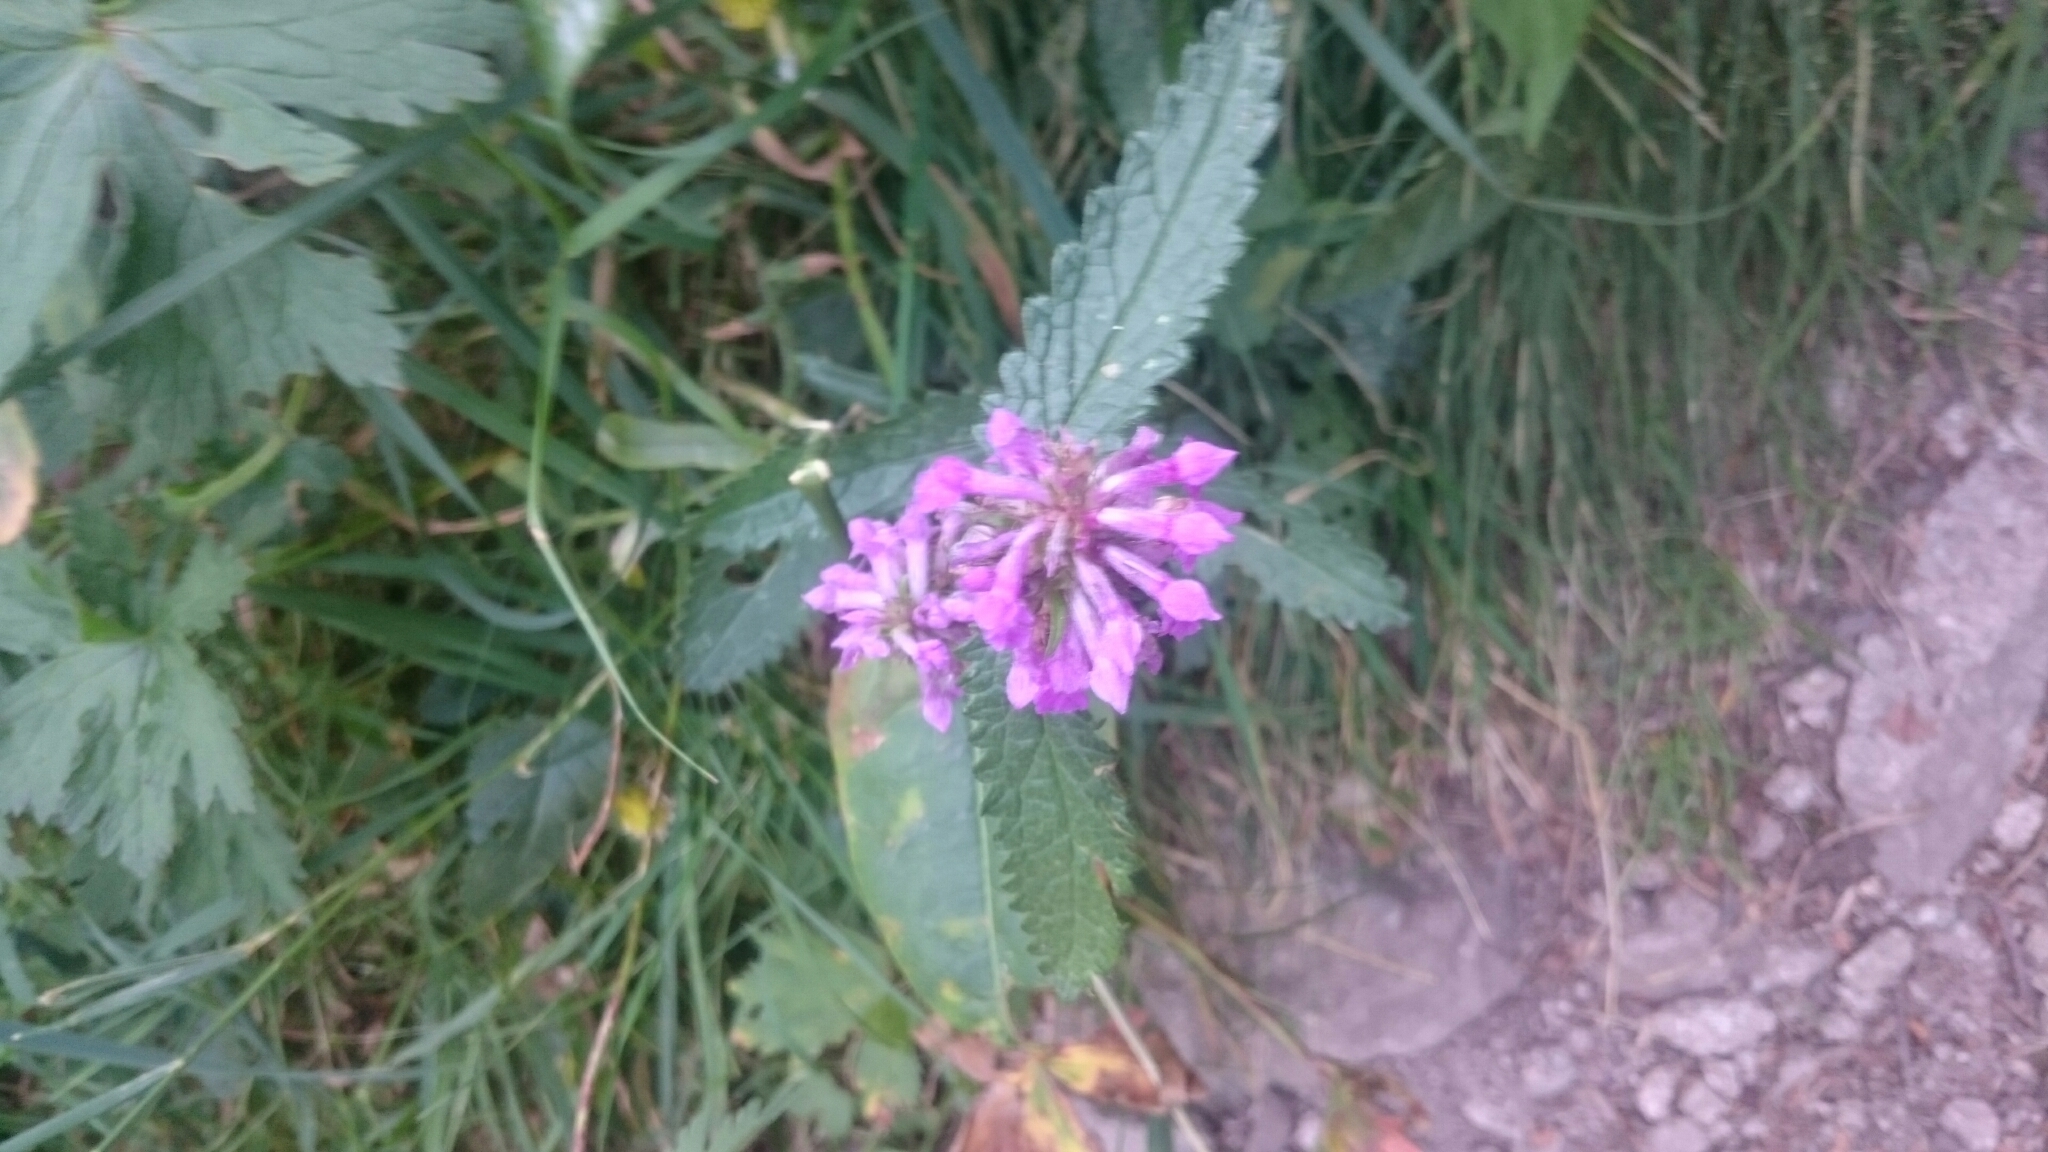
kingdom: Plantae
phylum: Tracheophyta
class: Magnoliopsida
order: Lamiales
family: Lamiaceae
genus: Betonica
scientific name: Betonica officinalis
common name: Bishop's-wort
